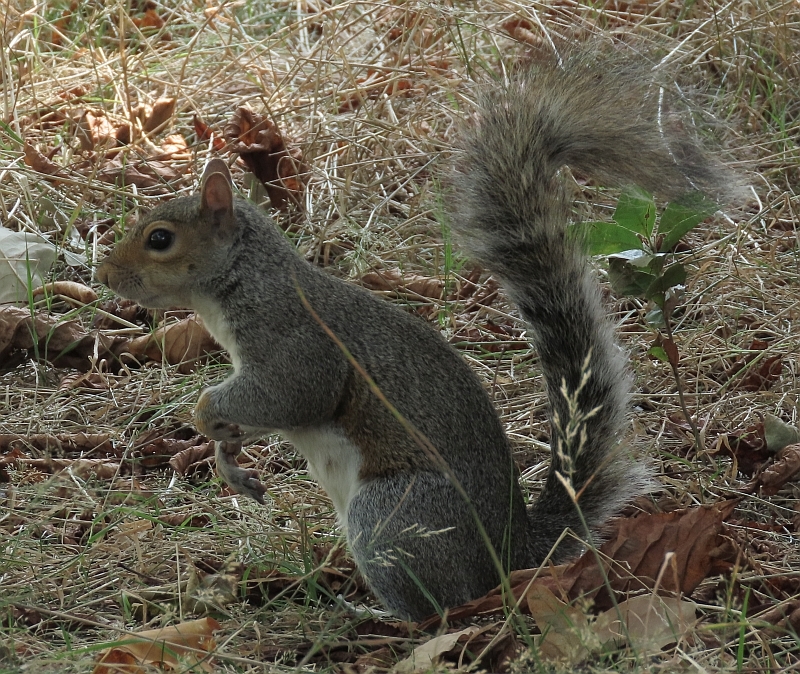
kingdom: Animalia
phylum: Chordata
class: Mammalia
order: Rodentia
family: Sciuridae
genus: Sciurus
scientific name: Sciurus carolinensis
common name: Eastern gray squirrel
